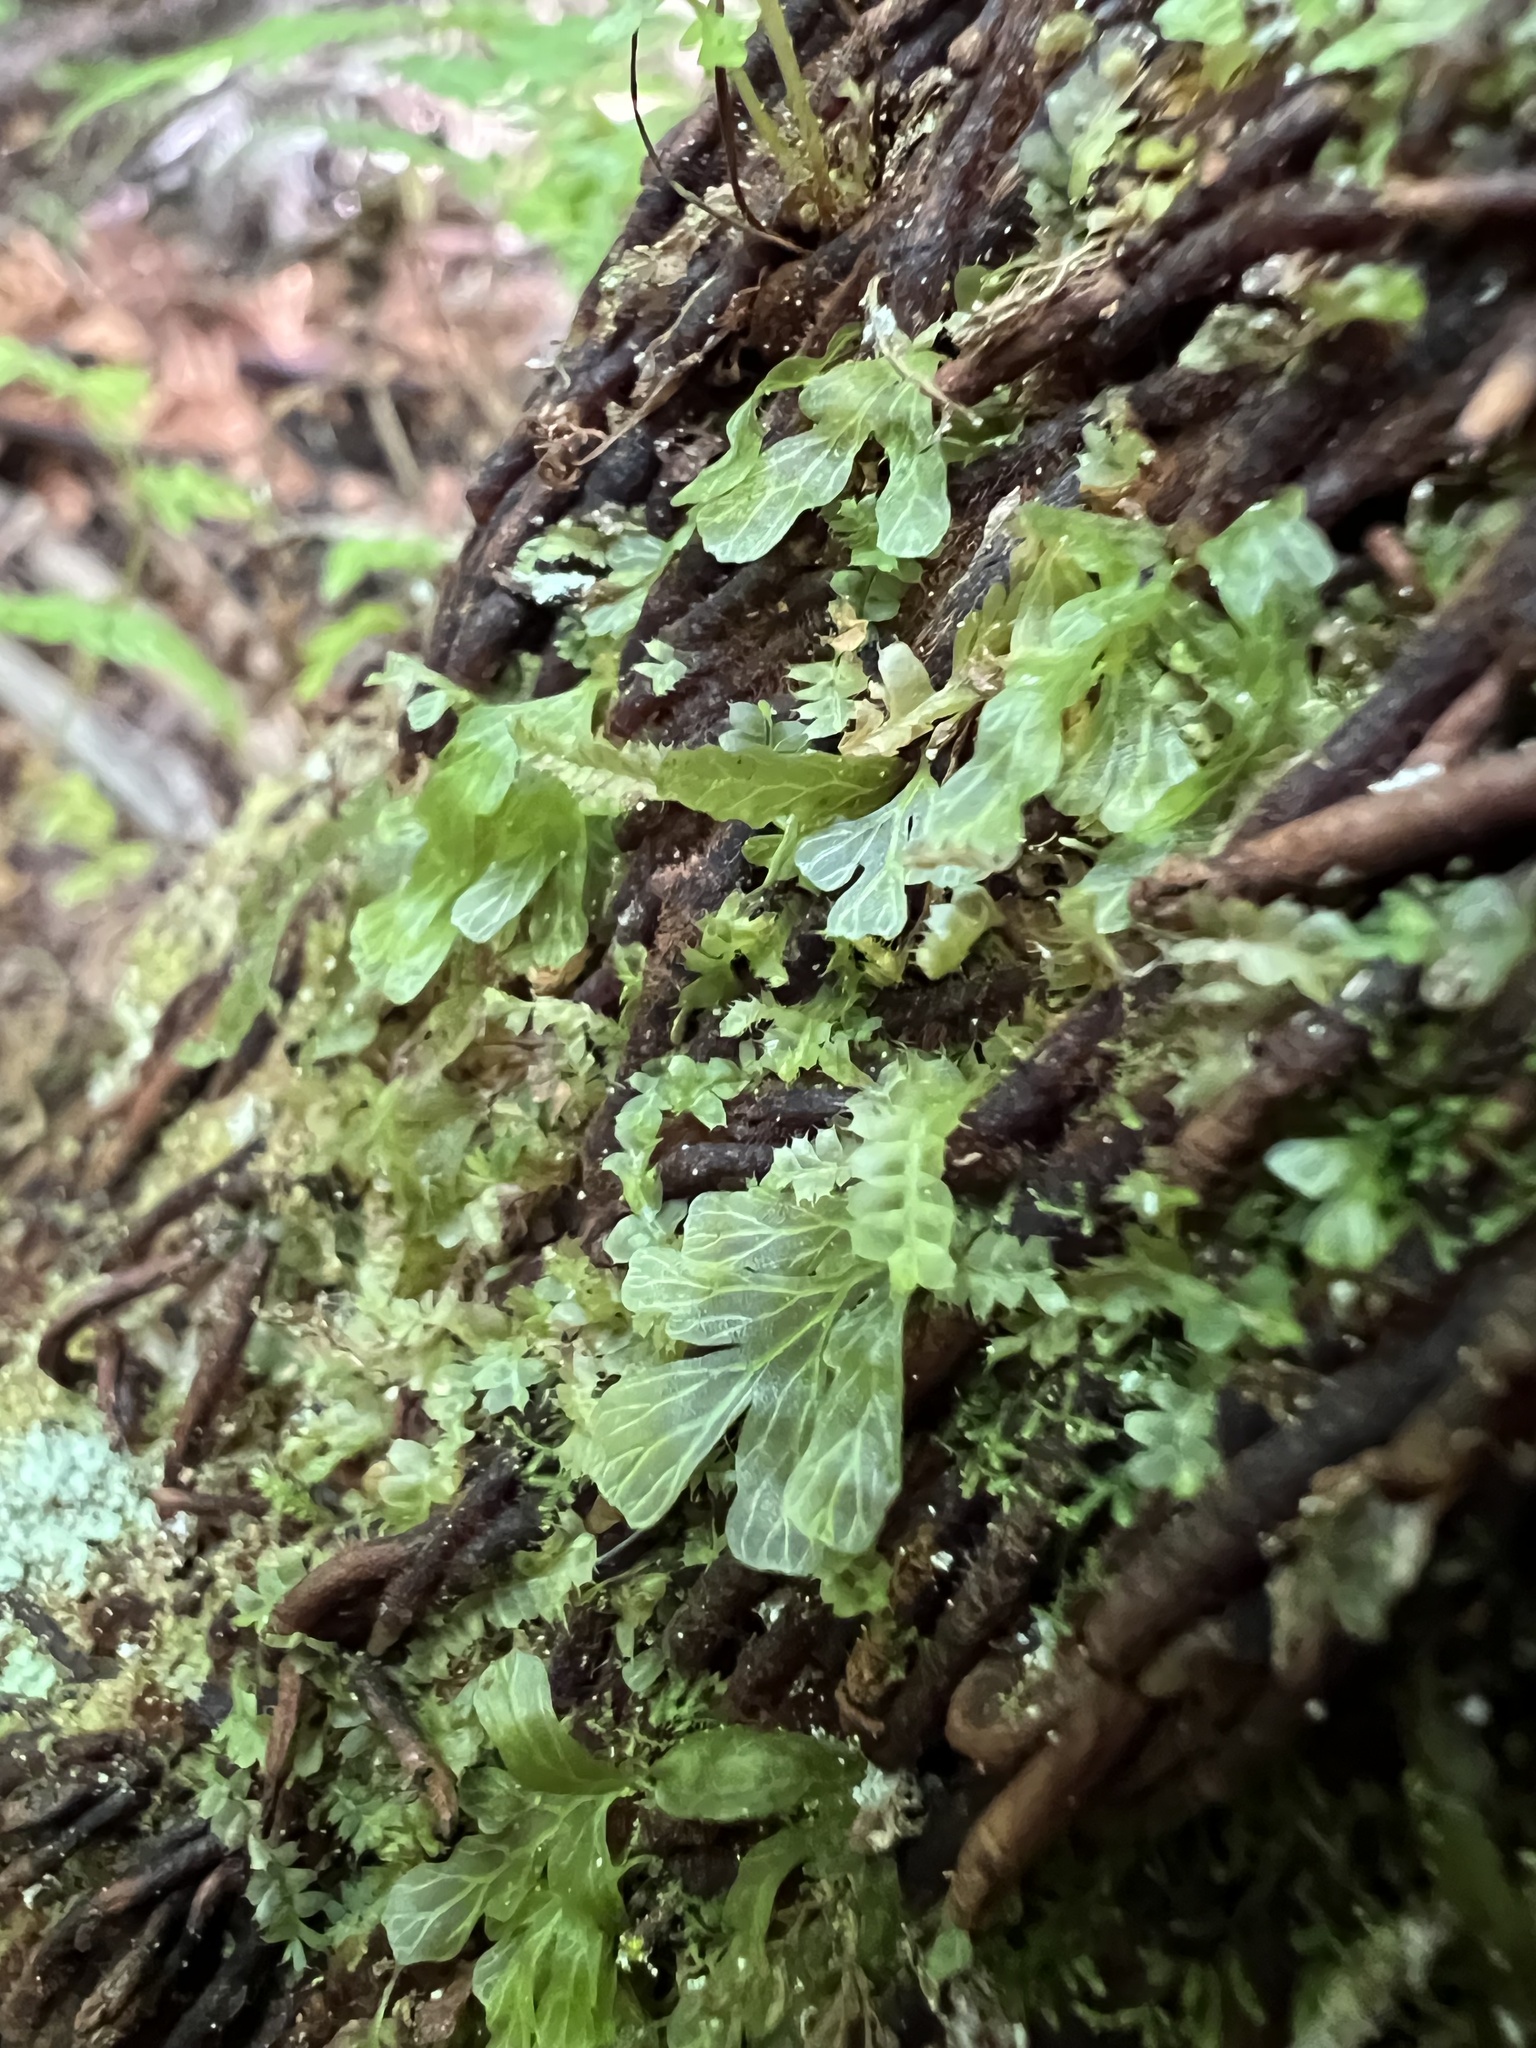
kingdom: Plantae
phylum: Tracheophyta
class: Polypodiopsida
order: Hymenophyllales
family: Hymenophyllaceae
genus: Polyphlebium
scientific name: Polyphlebium venosum
